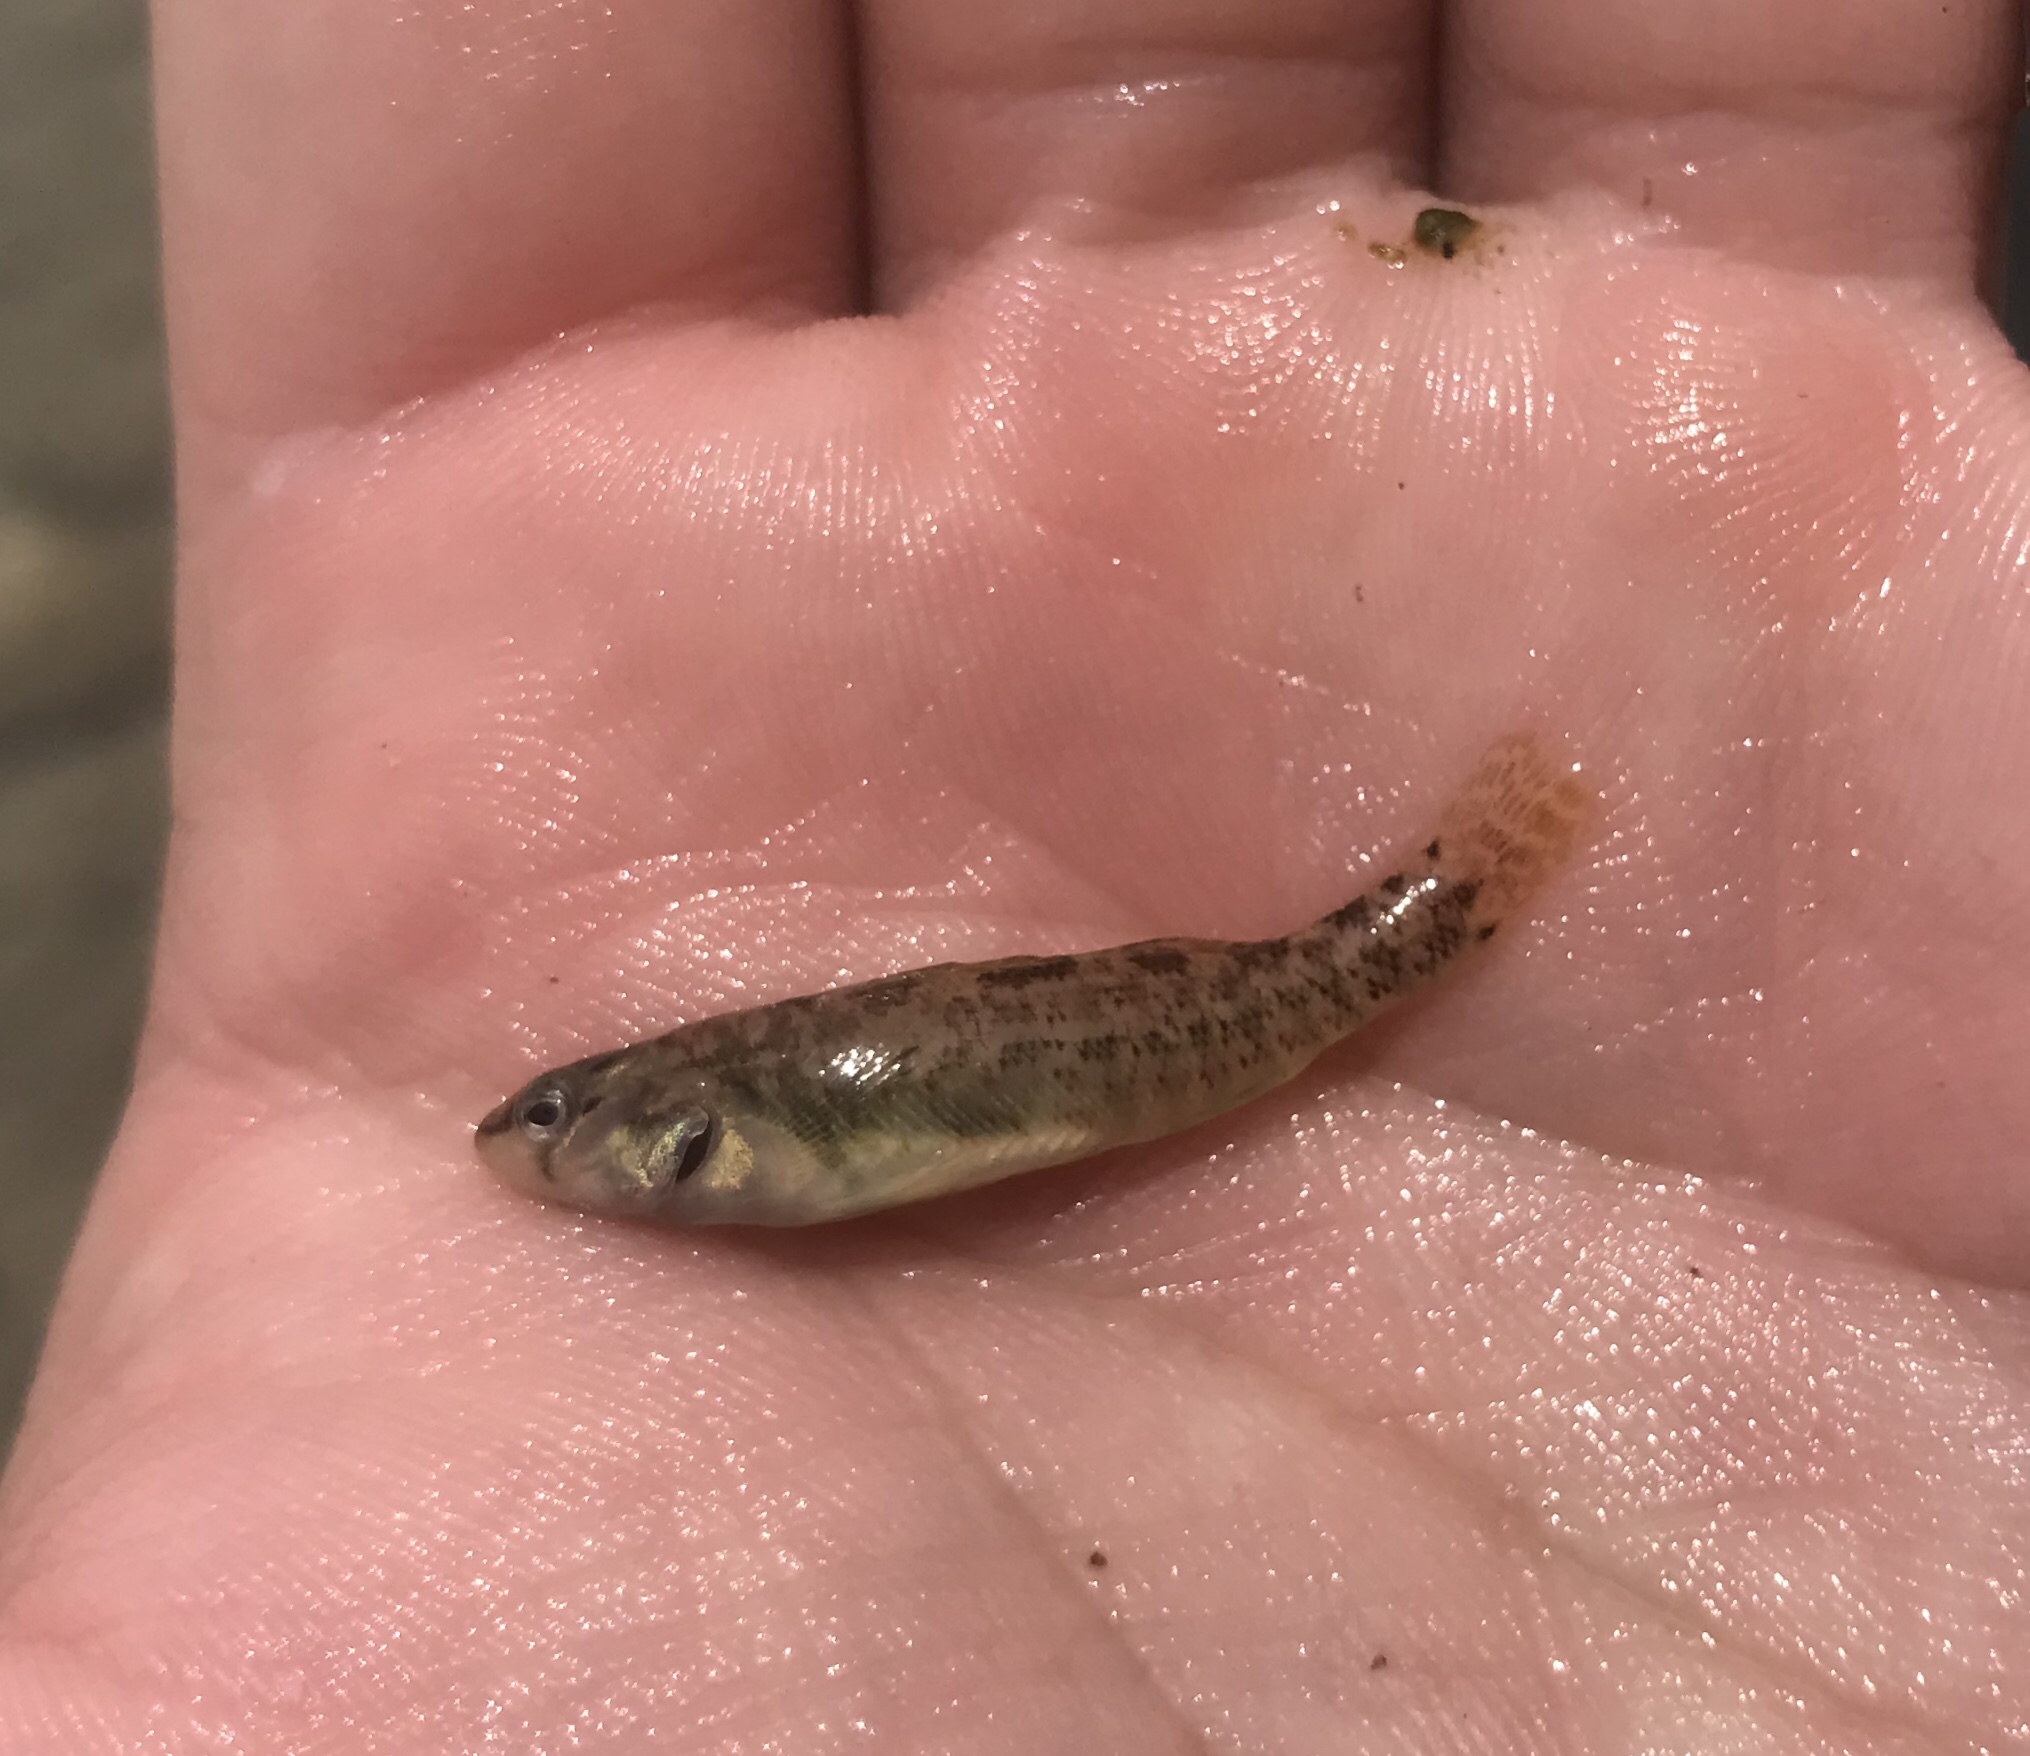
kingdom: Animalia
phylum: Chordata
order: Perciformes
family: Percidae
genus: Etheostoma
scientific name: Etheostoma lepidum
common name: Greenthroat darter
